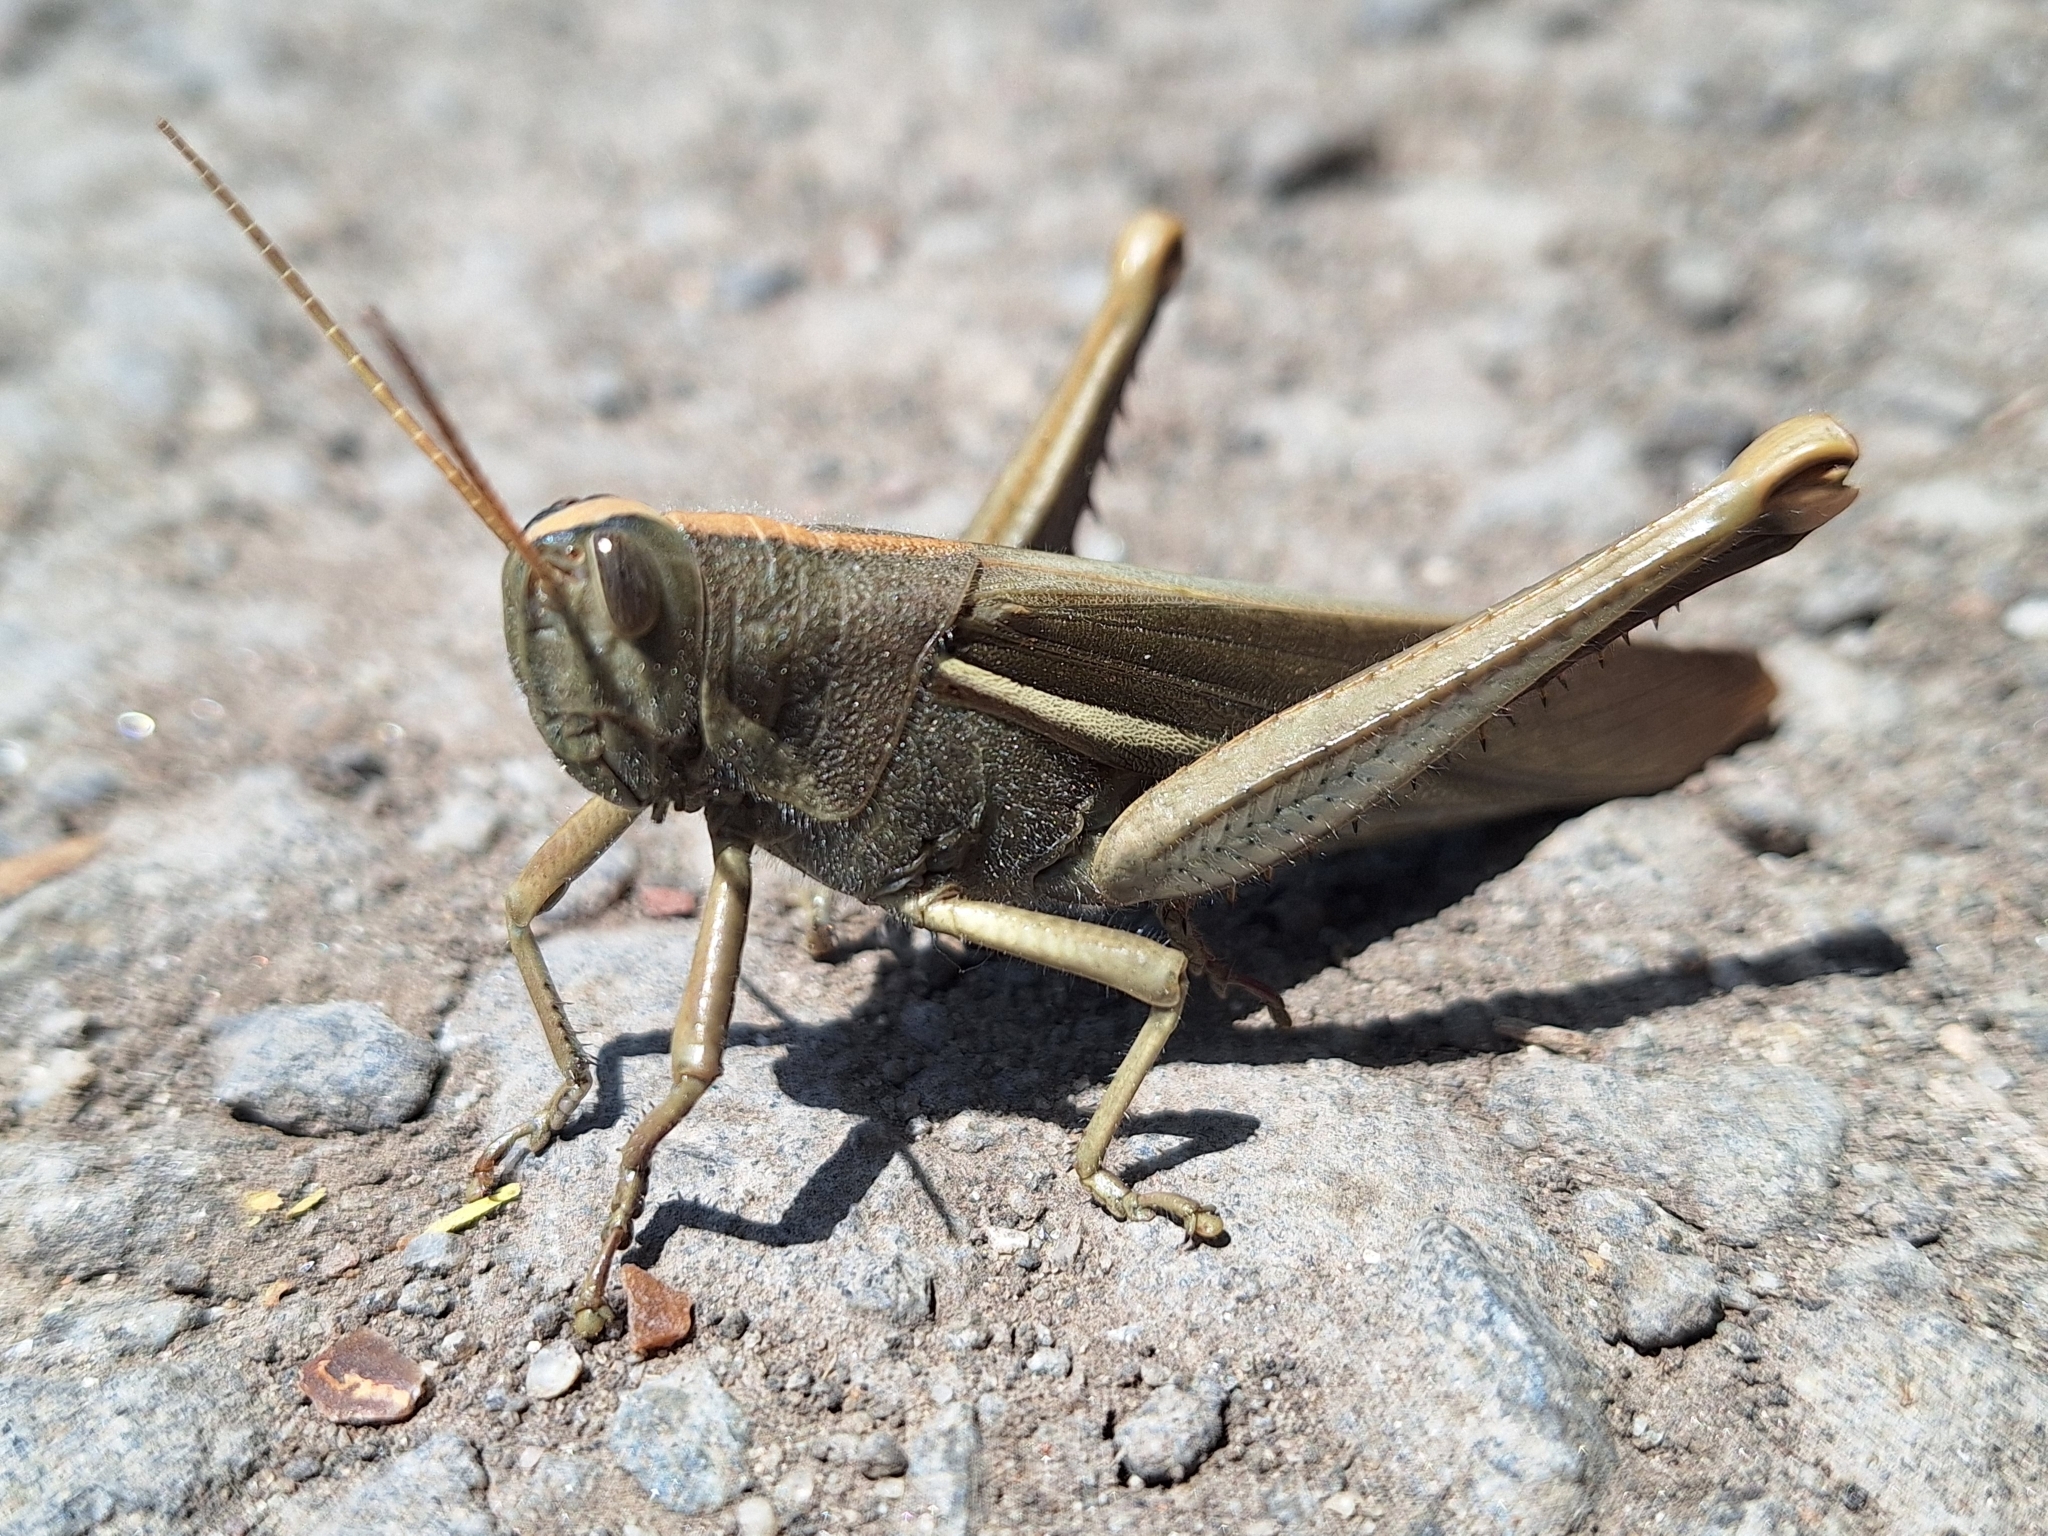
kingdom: Animalia
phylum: Arthropoda
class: Insecta
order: Orthoptera
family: Acrididae
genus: Schistocerca
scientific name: Schistocerca flavofasciata
